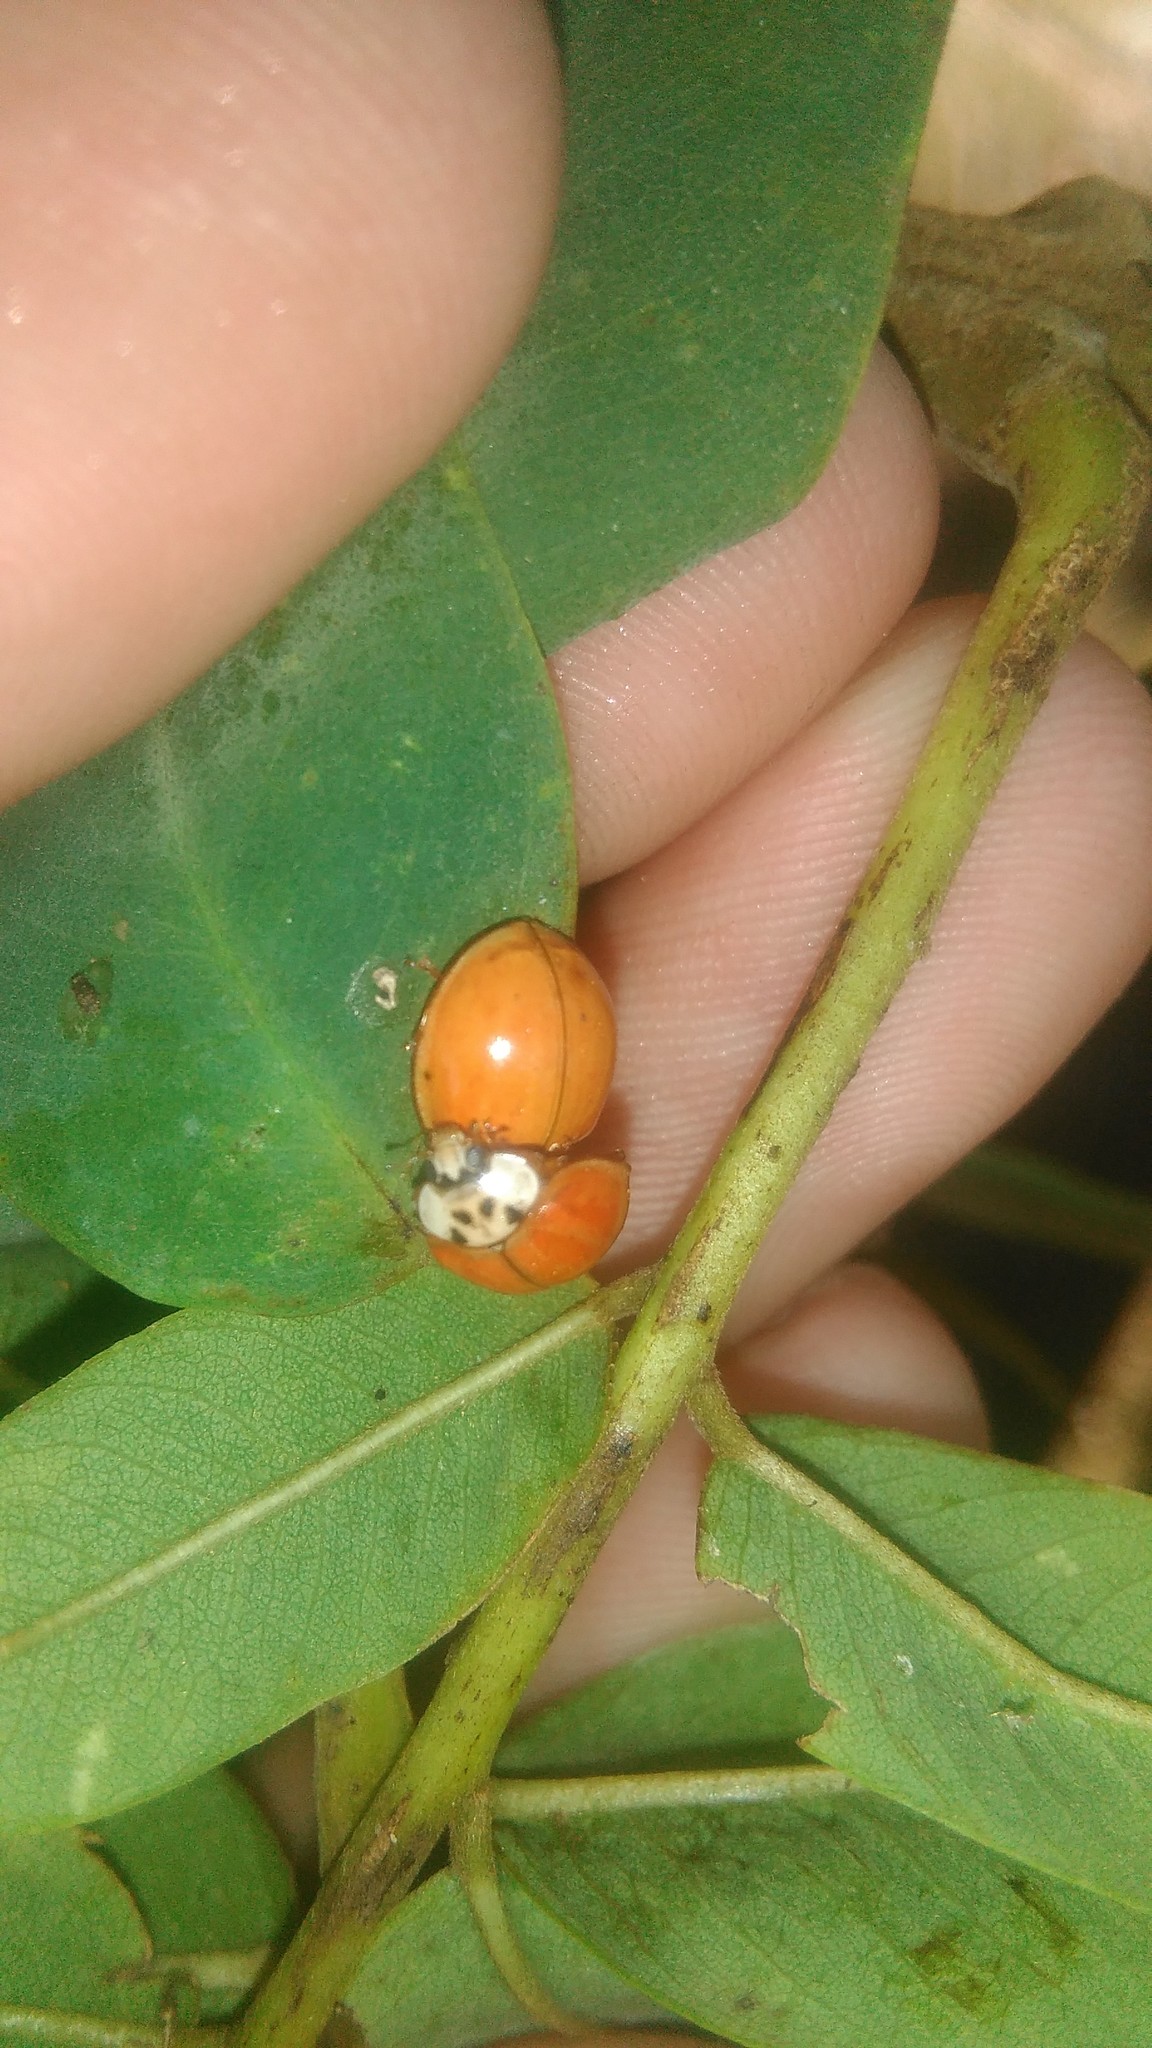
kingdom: Animalia
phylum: Arthropoda
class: Insecta
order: Coleoptera
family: Coccinellidae
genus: Harmonia
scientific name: Harmonia axyridis
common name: Harlequin ladybird
